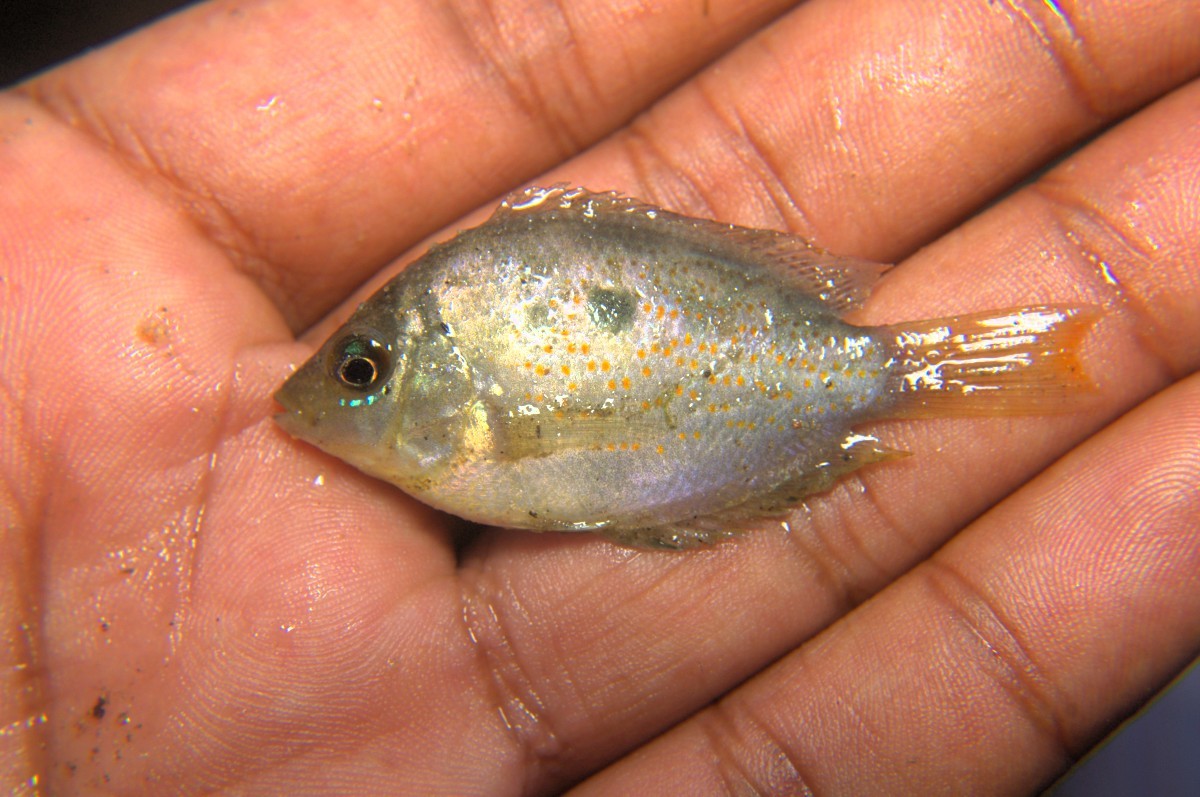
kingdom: Animalia
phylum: Chordata
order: Perciformes
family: Cichlidae
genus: Etroplus
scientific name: Etroplus maculatus
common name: Orange chromide
